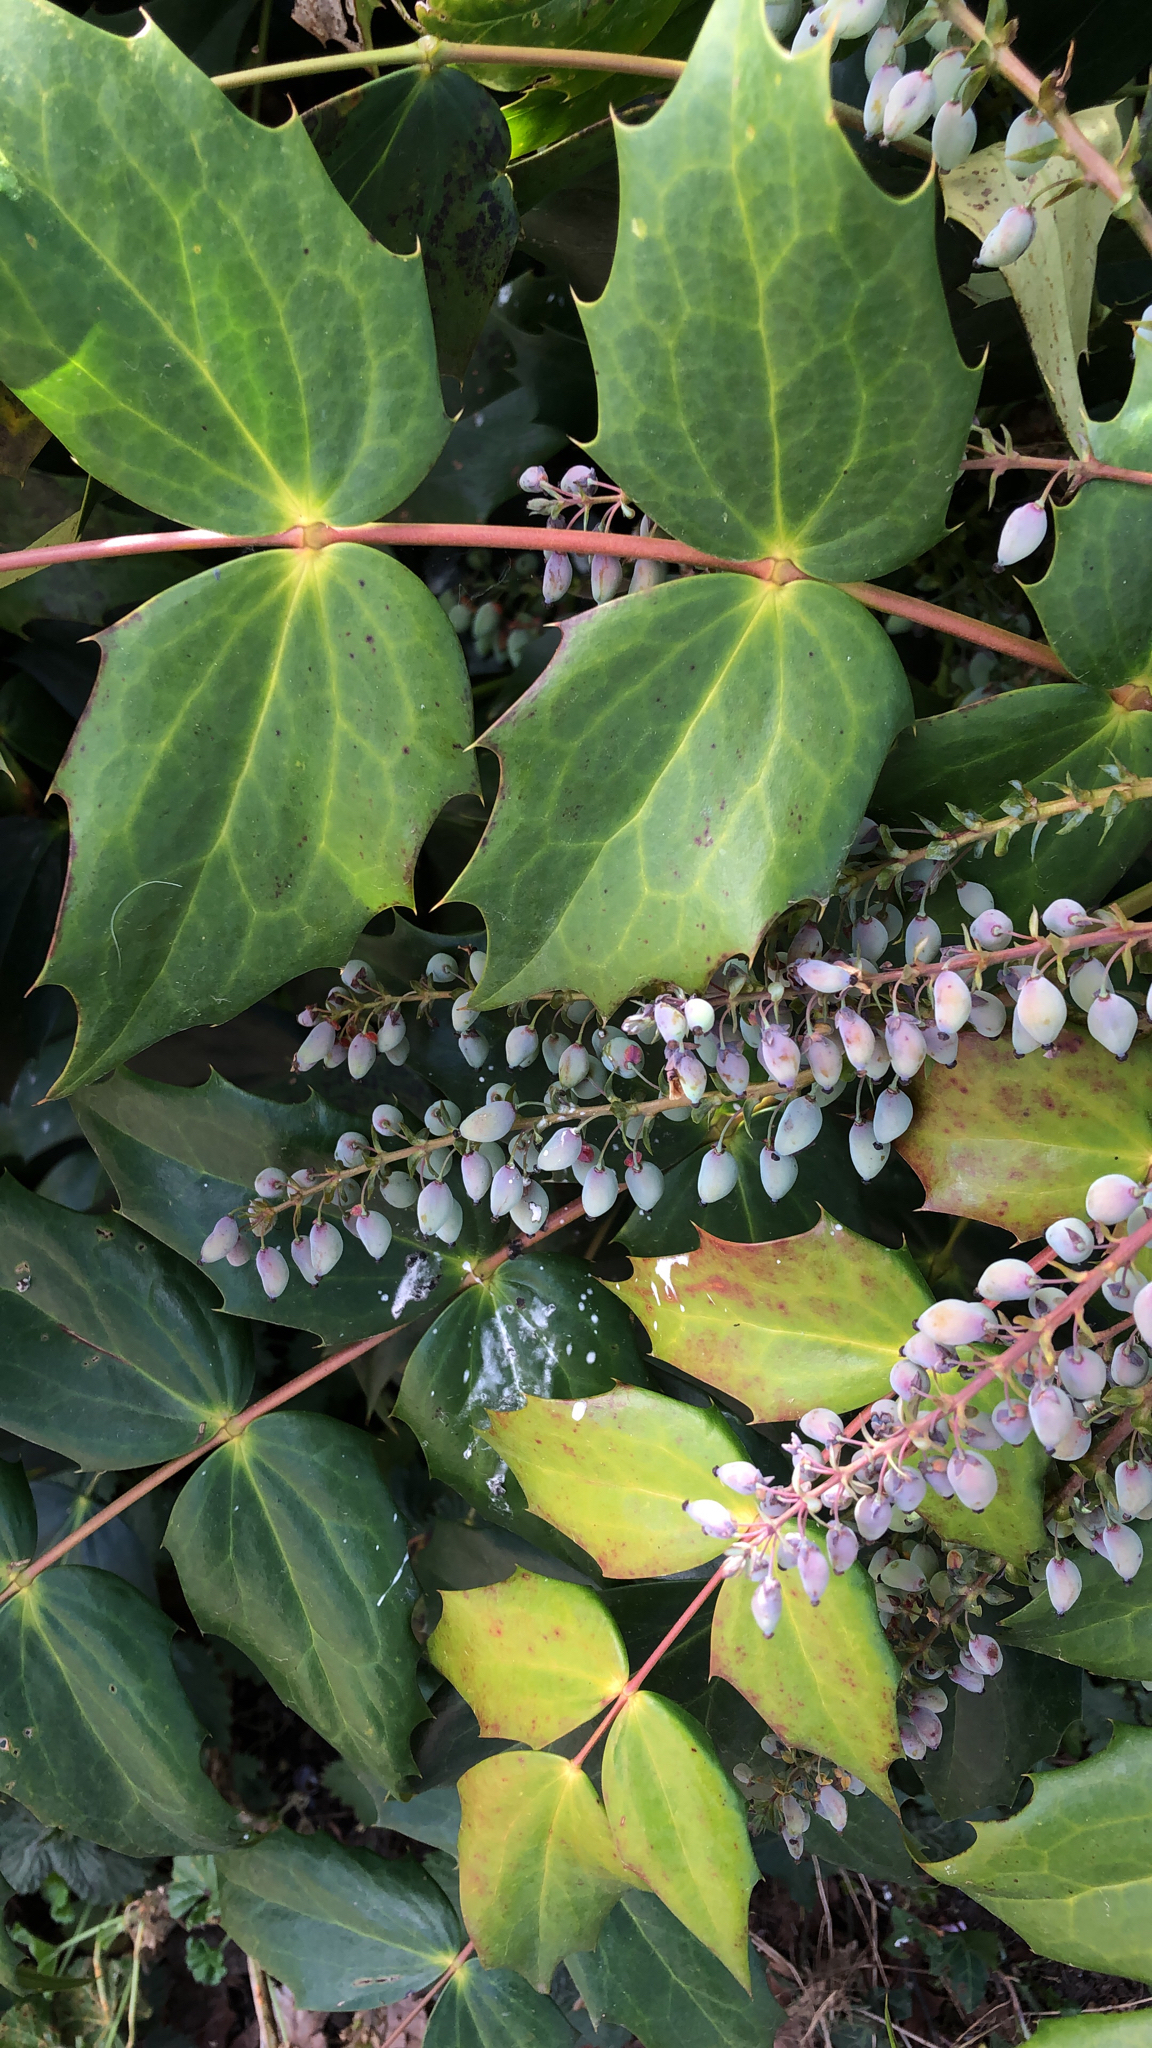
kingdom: Plantae
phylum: Tracheophyta
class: Magnoliopsida
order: Ranunculales
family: Berberidaceae
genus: Mahonia
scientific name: Mahonia bealei
